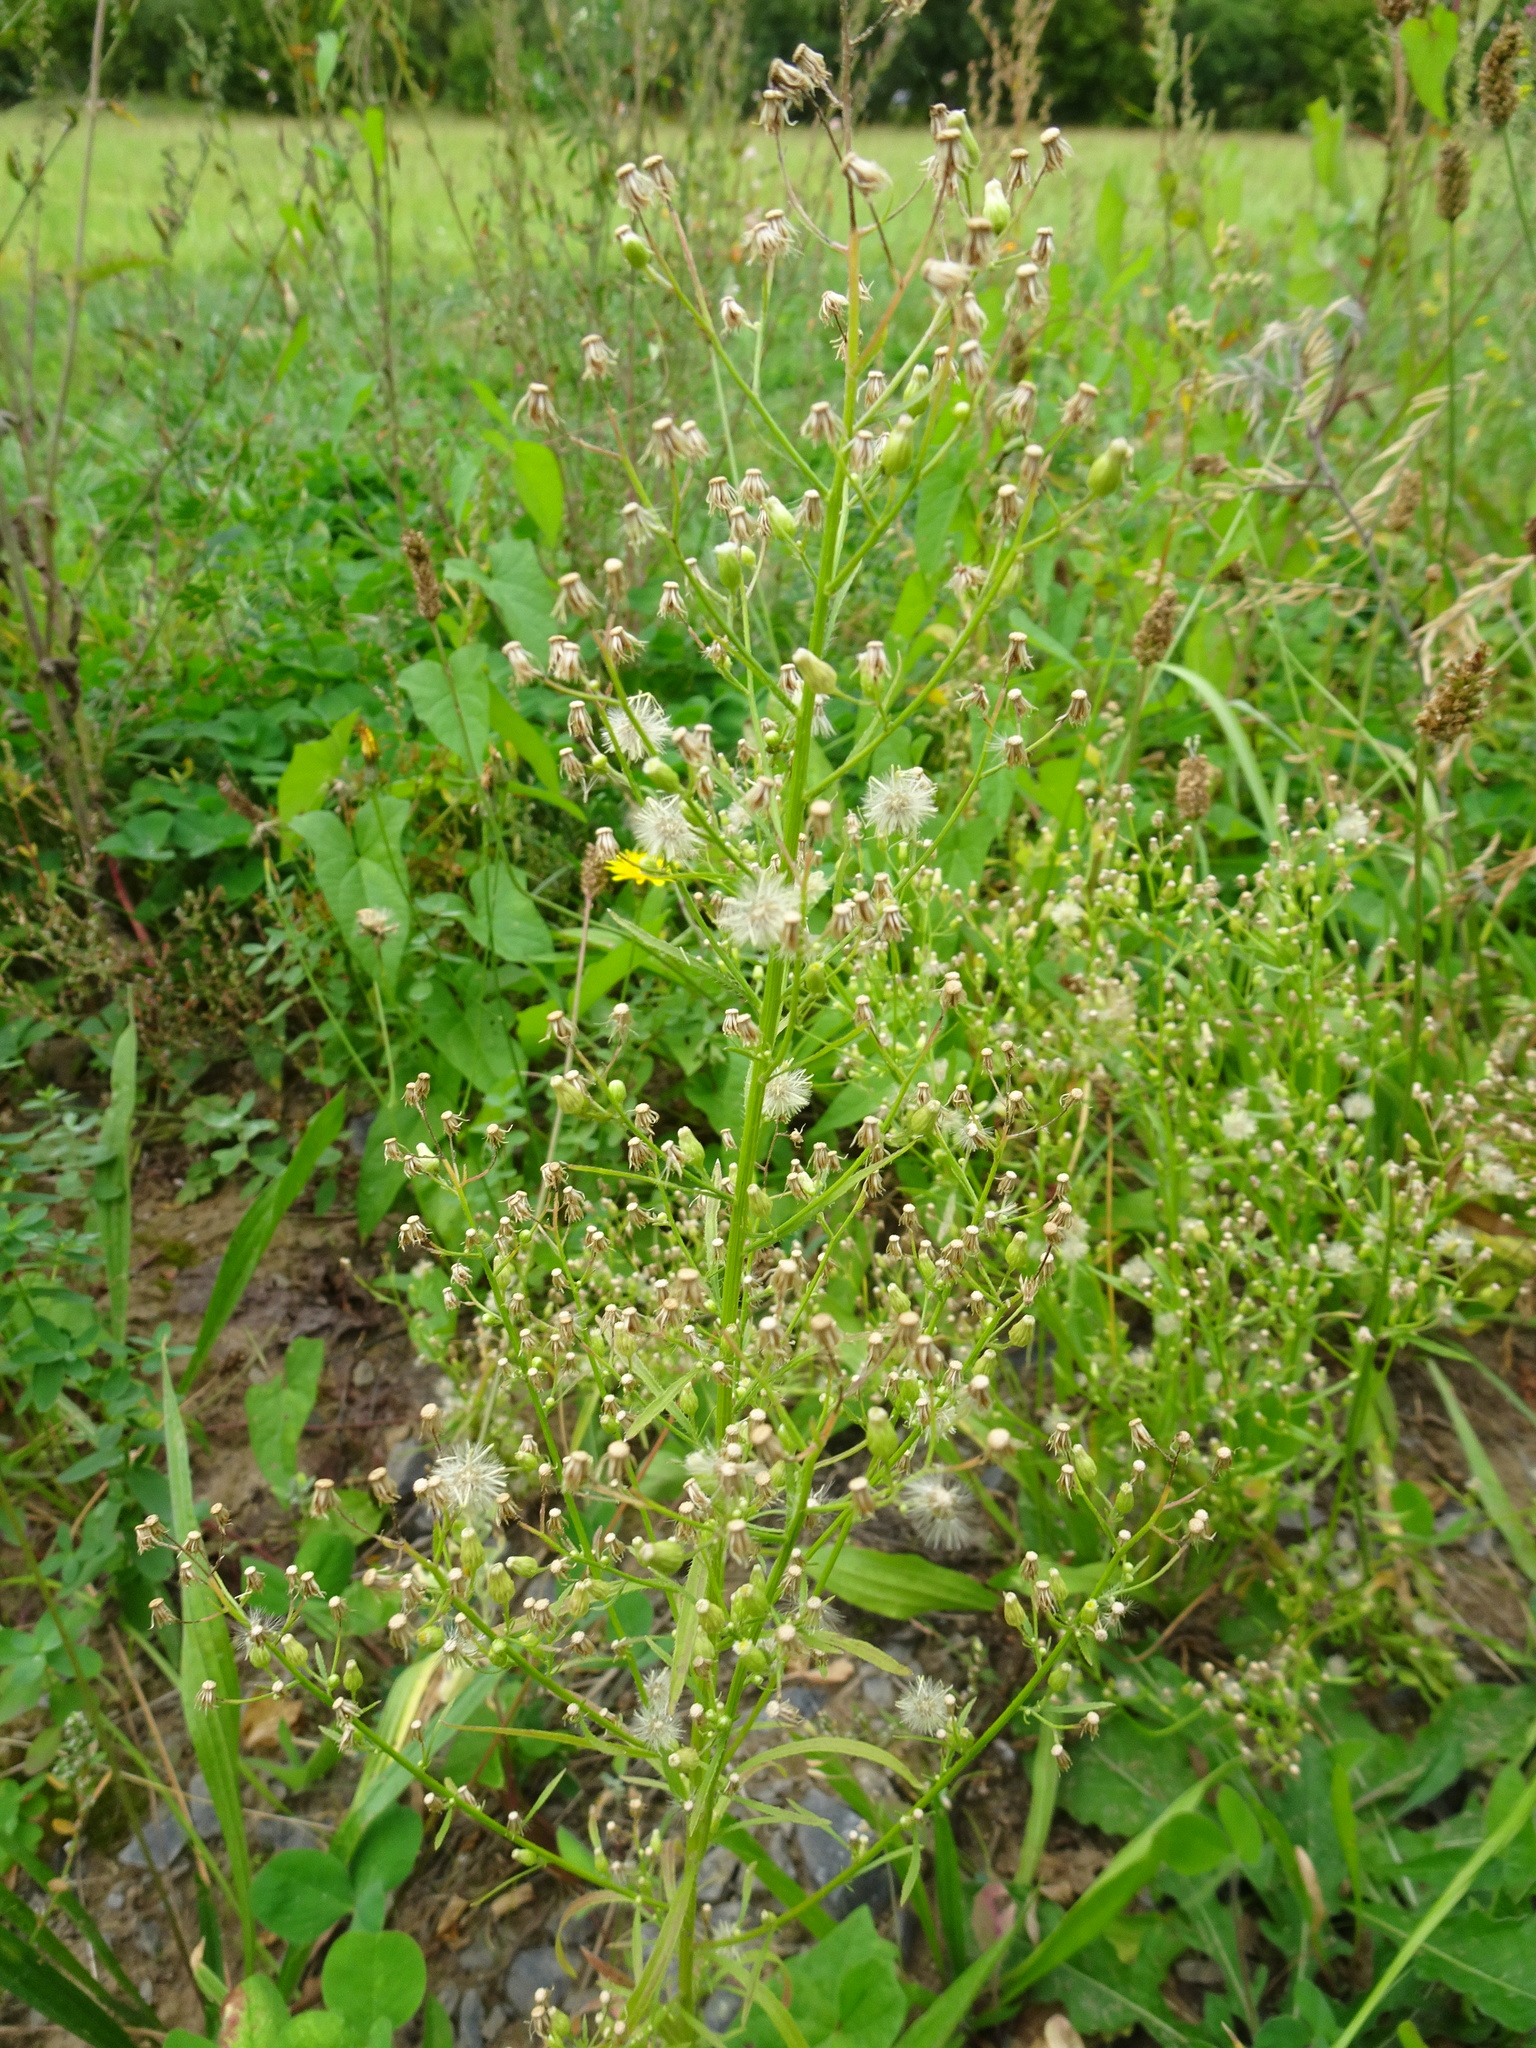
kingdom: Plantae
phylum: Tracheophyta
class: Magnoliopsida
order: Asterales
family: Asteraceae
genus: Erigeron
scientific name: Erigeron canadensis
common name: Canadian fleabane
